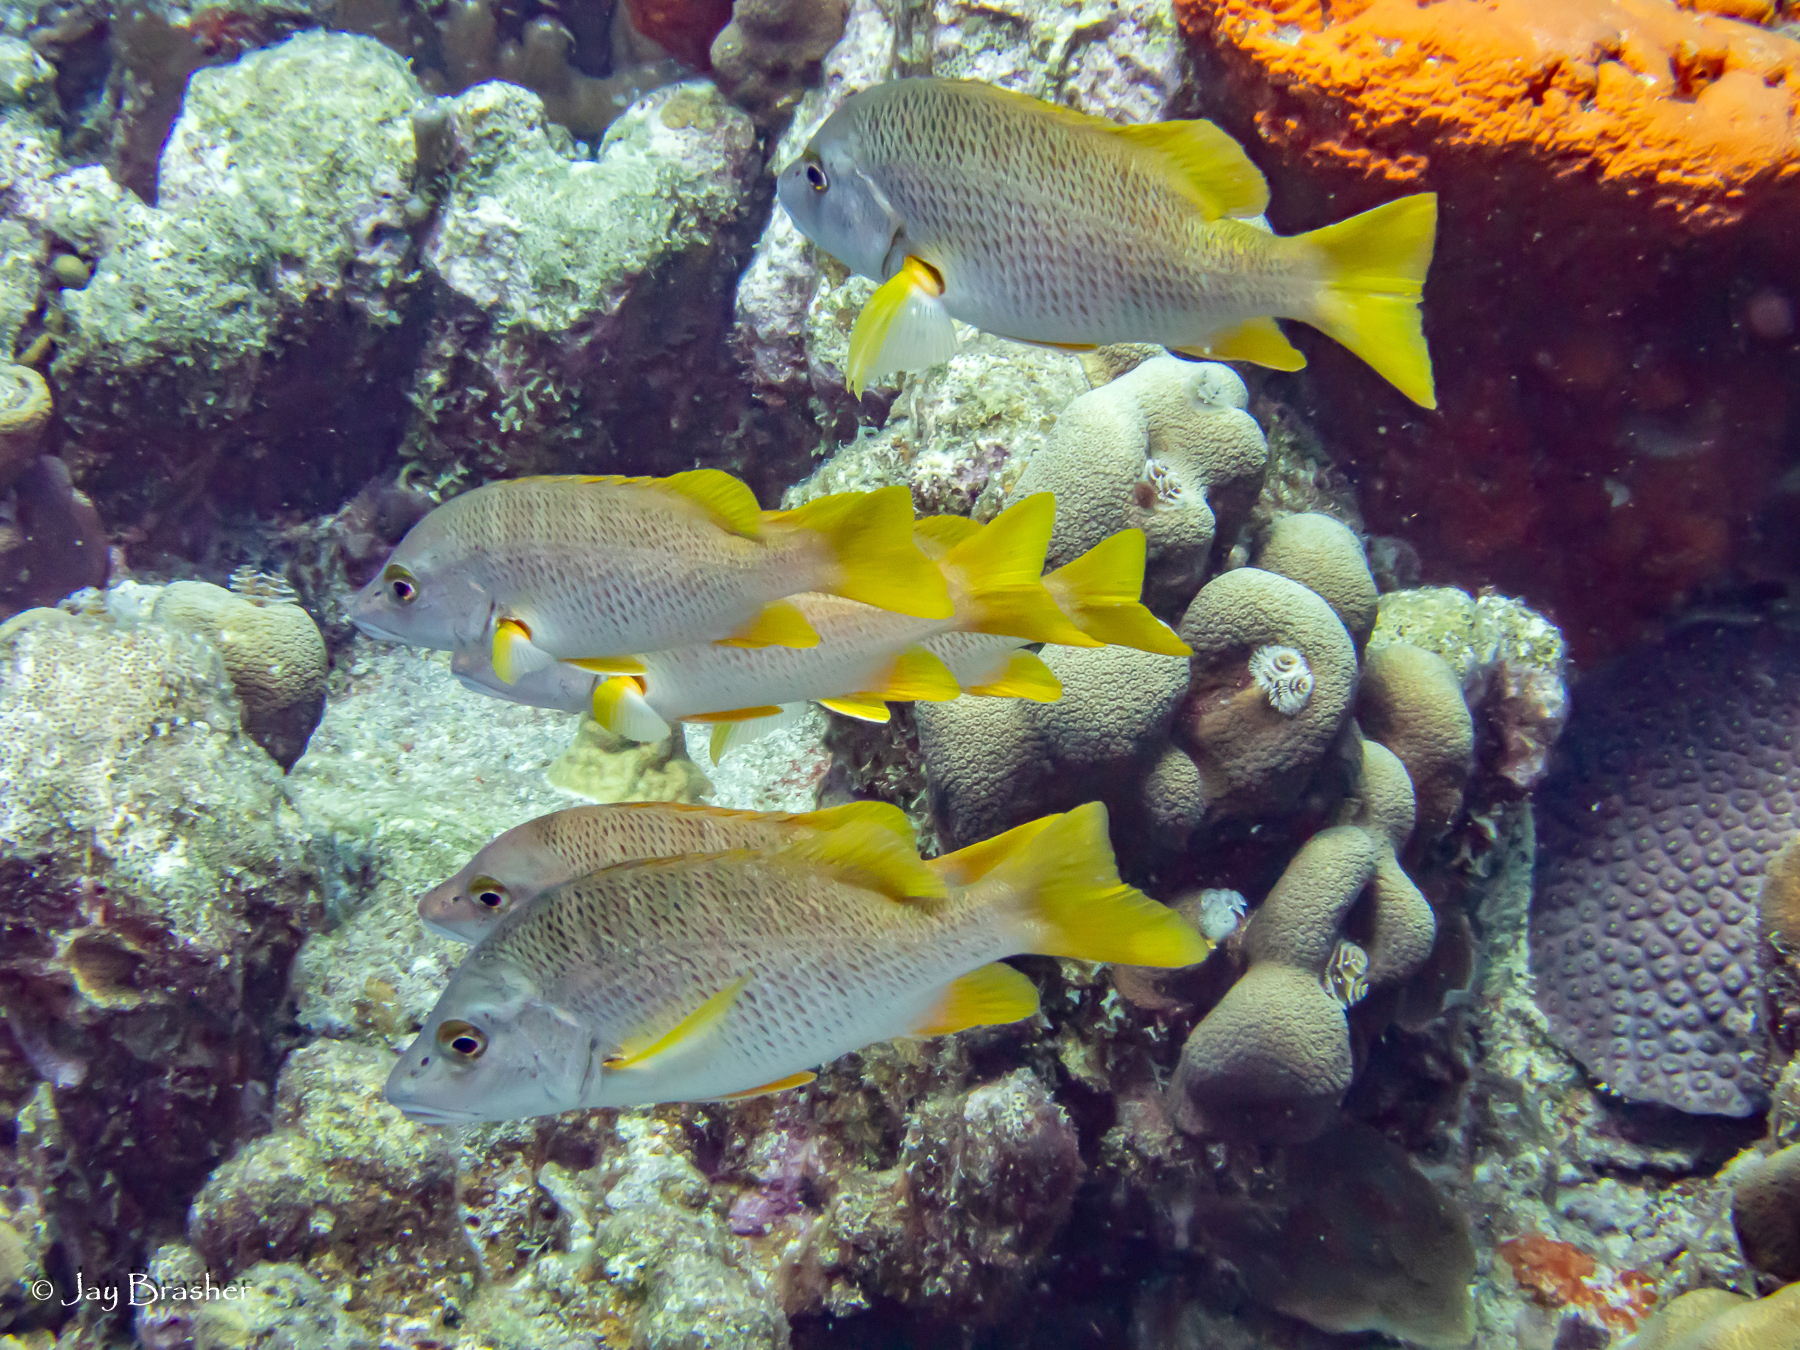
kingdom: Animalia
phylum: Chordata
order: Perciformes
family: Lutjanidae
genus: Lutjanus
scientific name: Lutjanus apodus
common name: Schoolmaster
